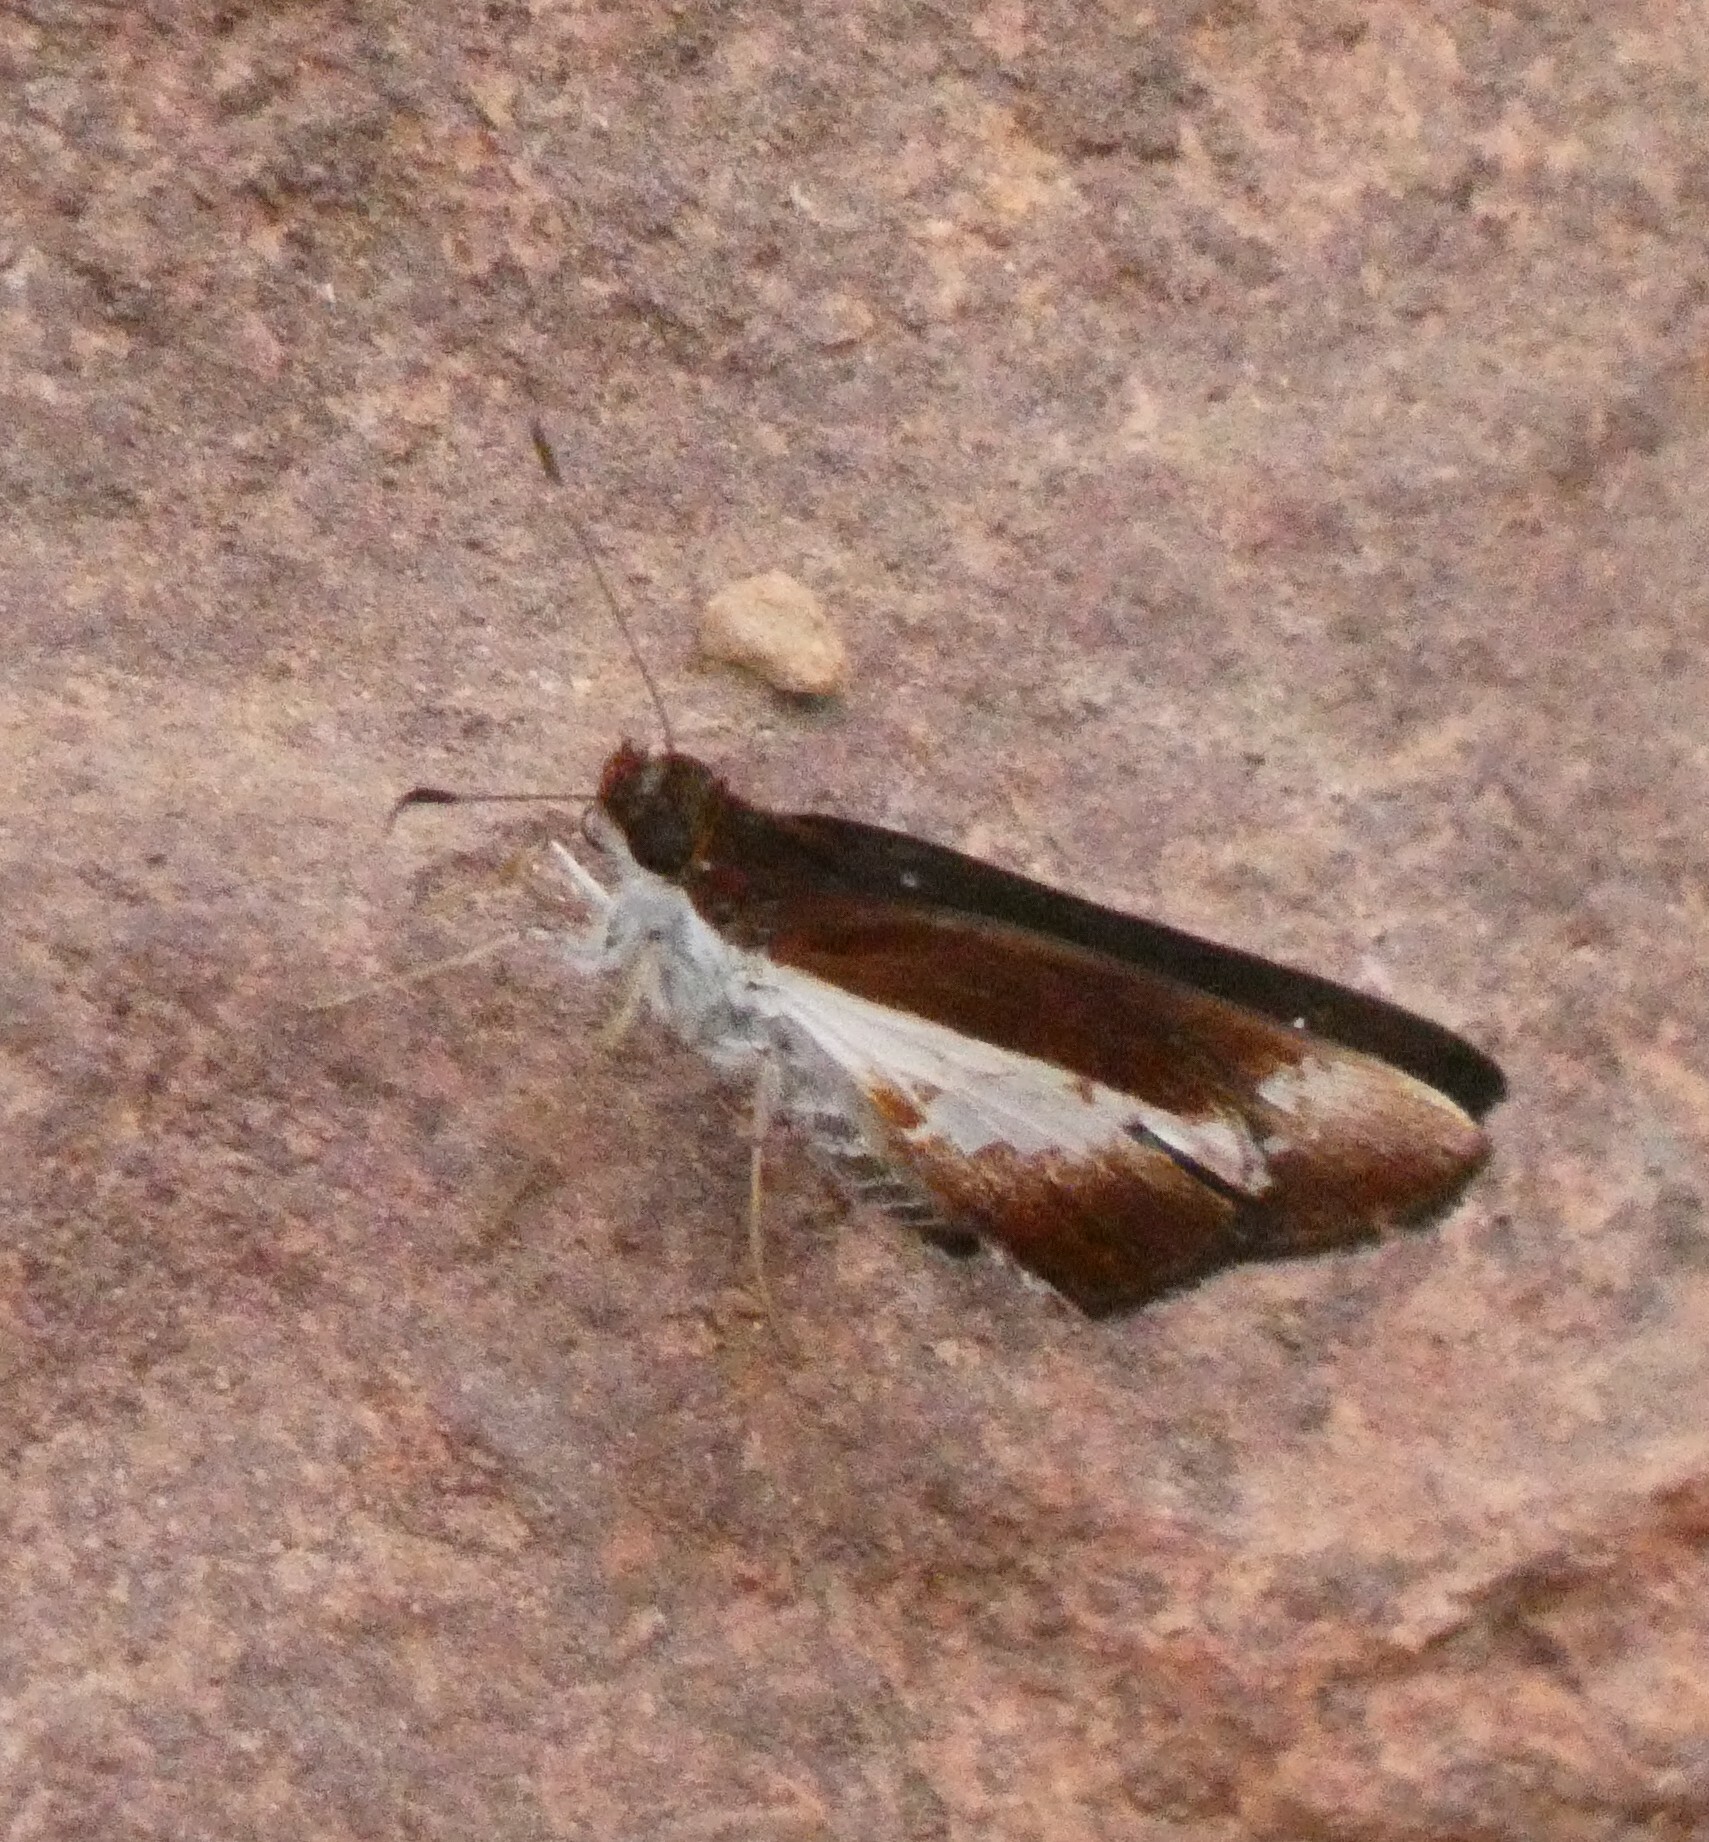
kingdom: Animalia
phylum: Arthropoda
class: Insecta
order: Lepidoptera
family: Hesperiidae
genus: Vettius
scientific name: Vettius lafrenaye
